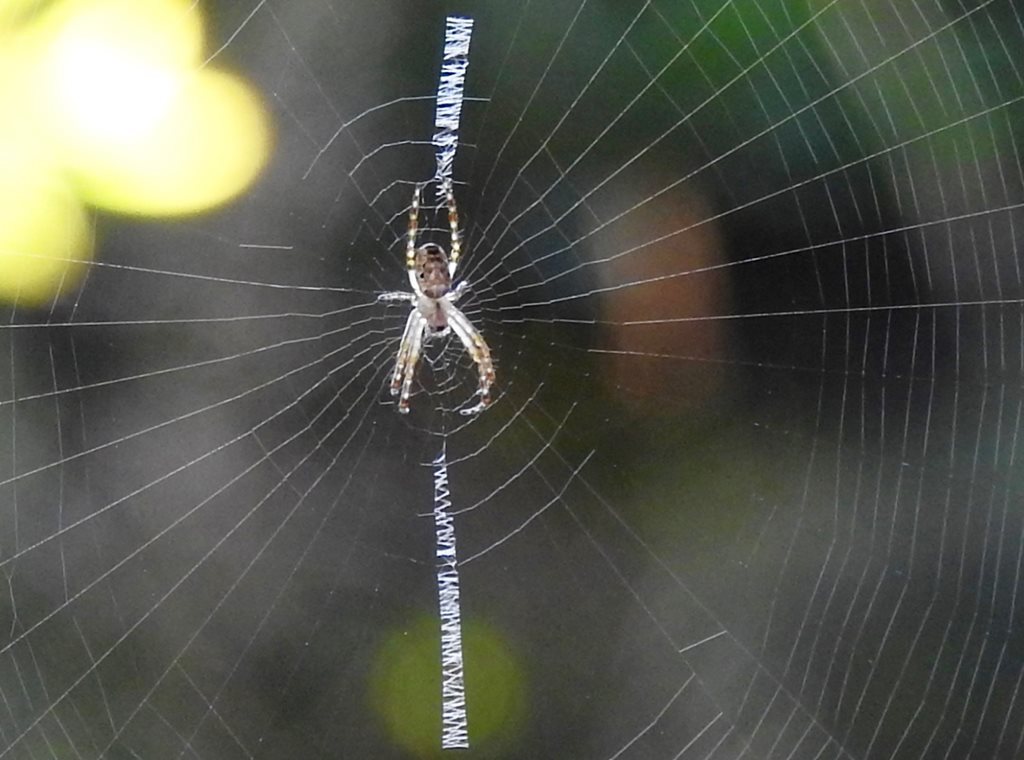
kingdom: Animalia
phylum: Arthropoda
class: Arachnida
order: Araneae
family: Araneidae
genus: Plebs
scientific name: Plebs eburnus
